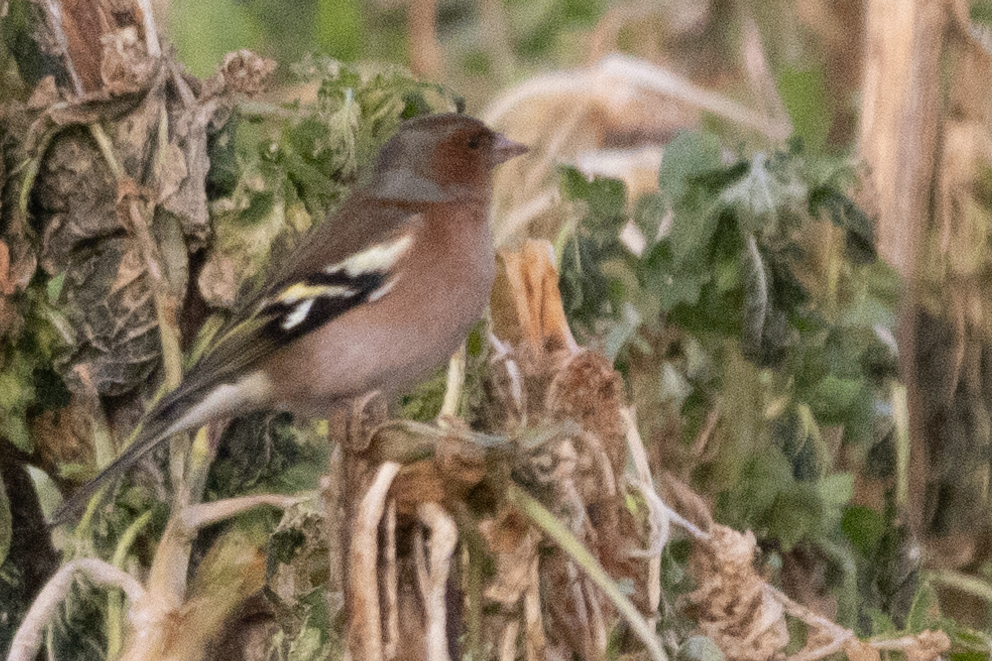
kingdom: Animalia
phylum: Chordata
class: Aves
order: Passeriformes
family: Fringillidae
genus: Fringilla
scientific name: Fringilla coelebs
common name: Common chaffinch
